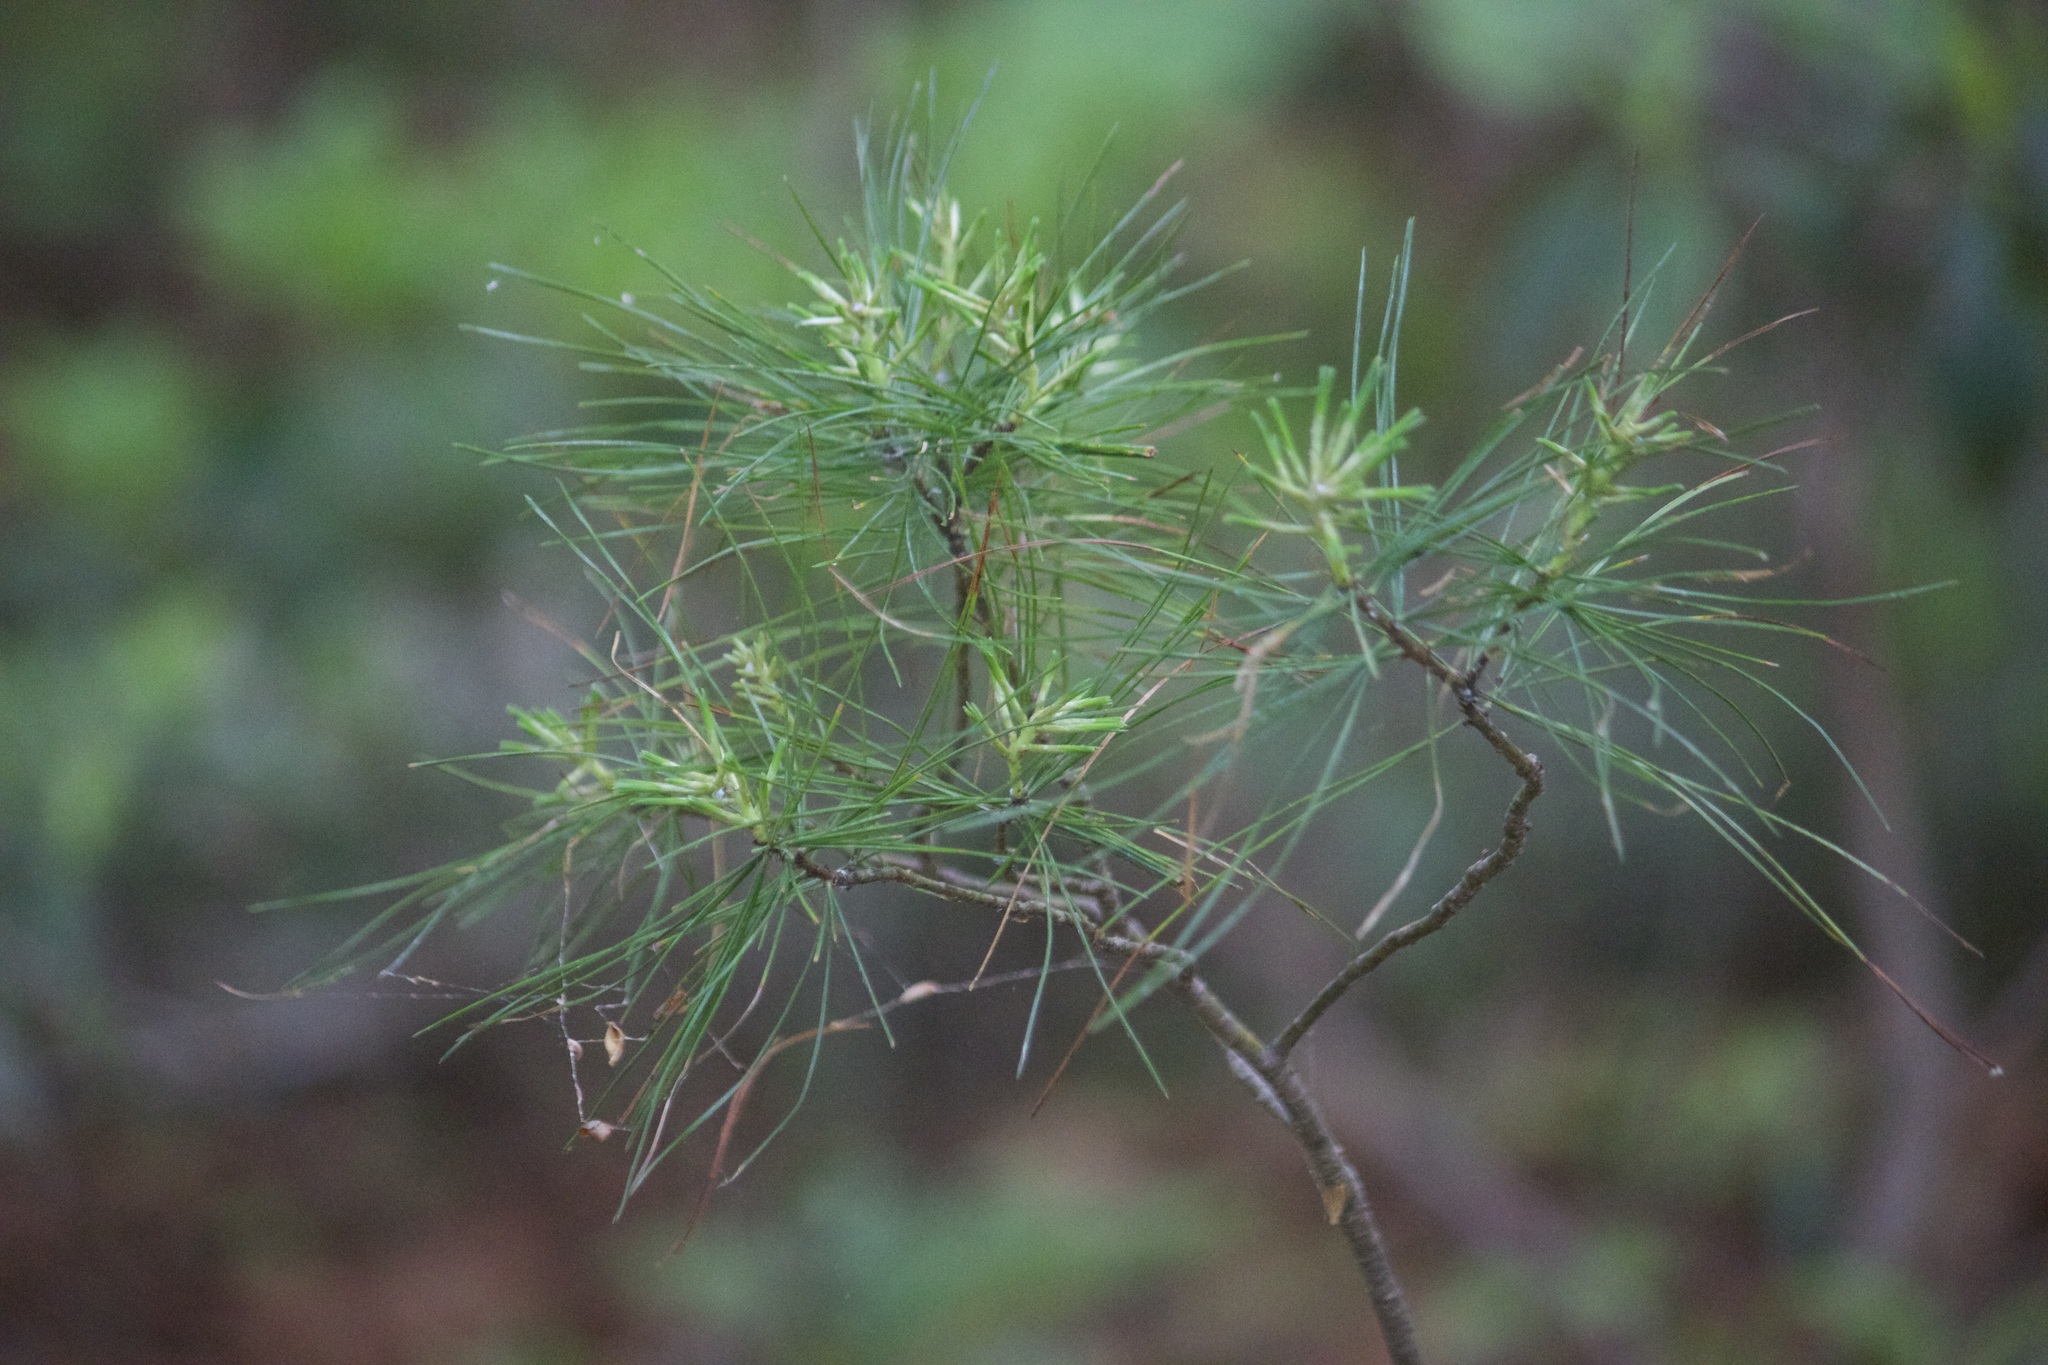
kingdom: Plantae
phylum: Tracheophyta
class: Pinopsida
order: Pinales
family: Pinaceae
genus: Pinus
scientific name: Pinus strobus
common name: Weymouth pine
